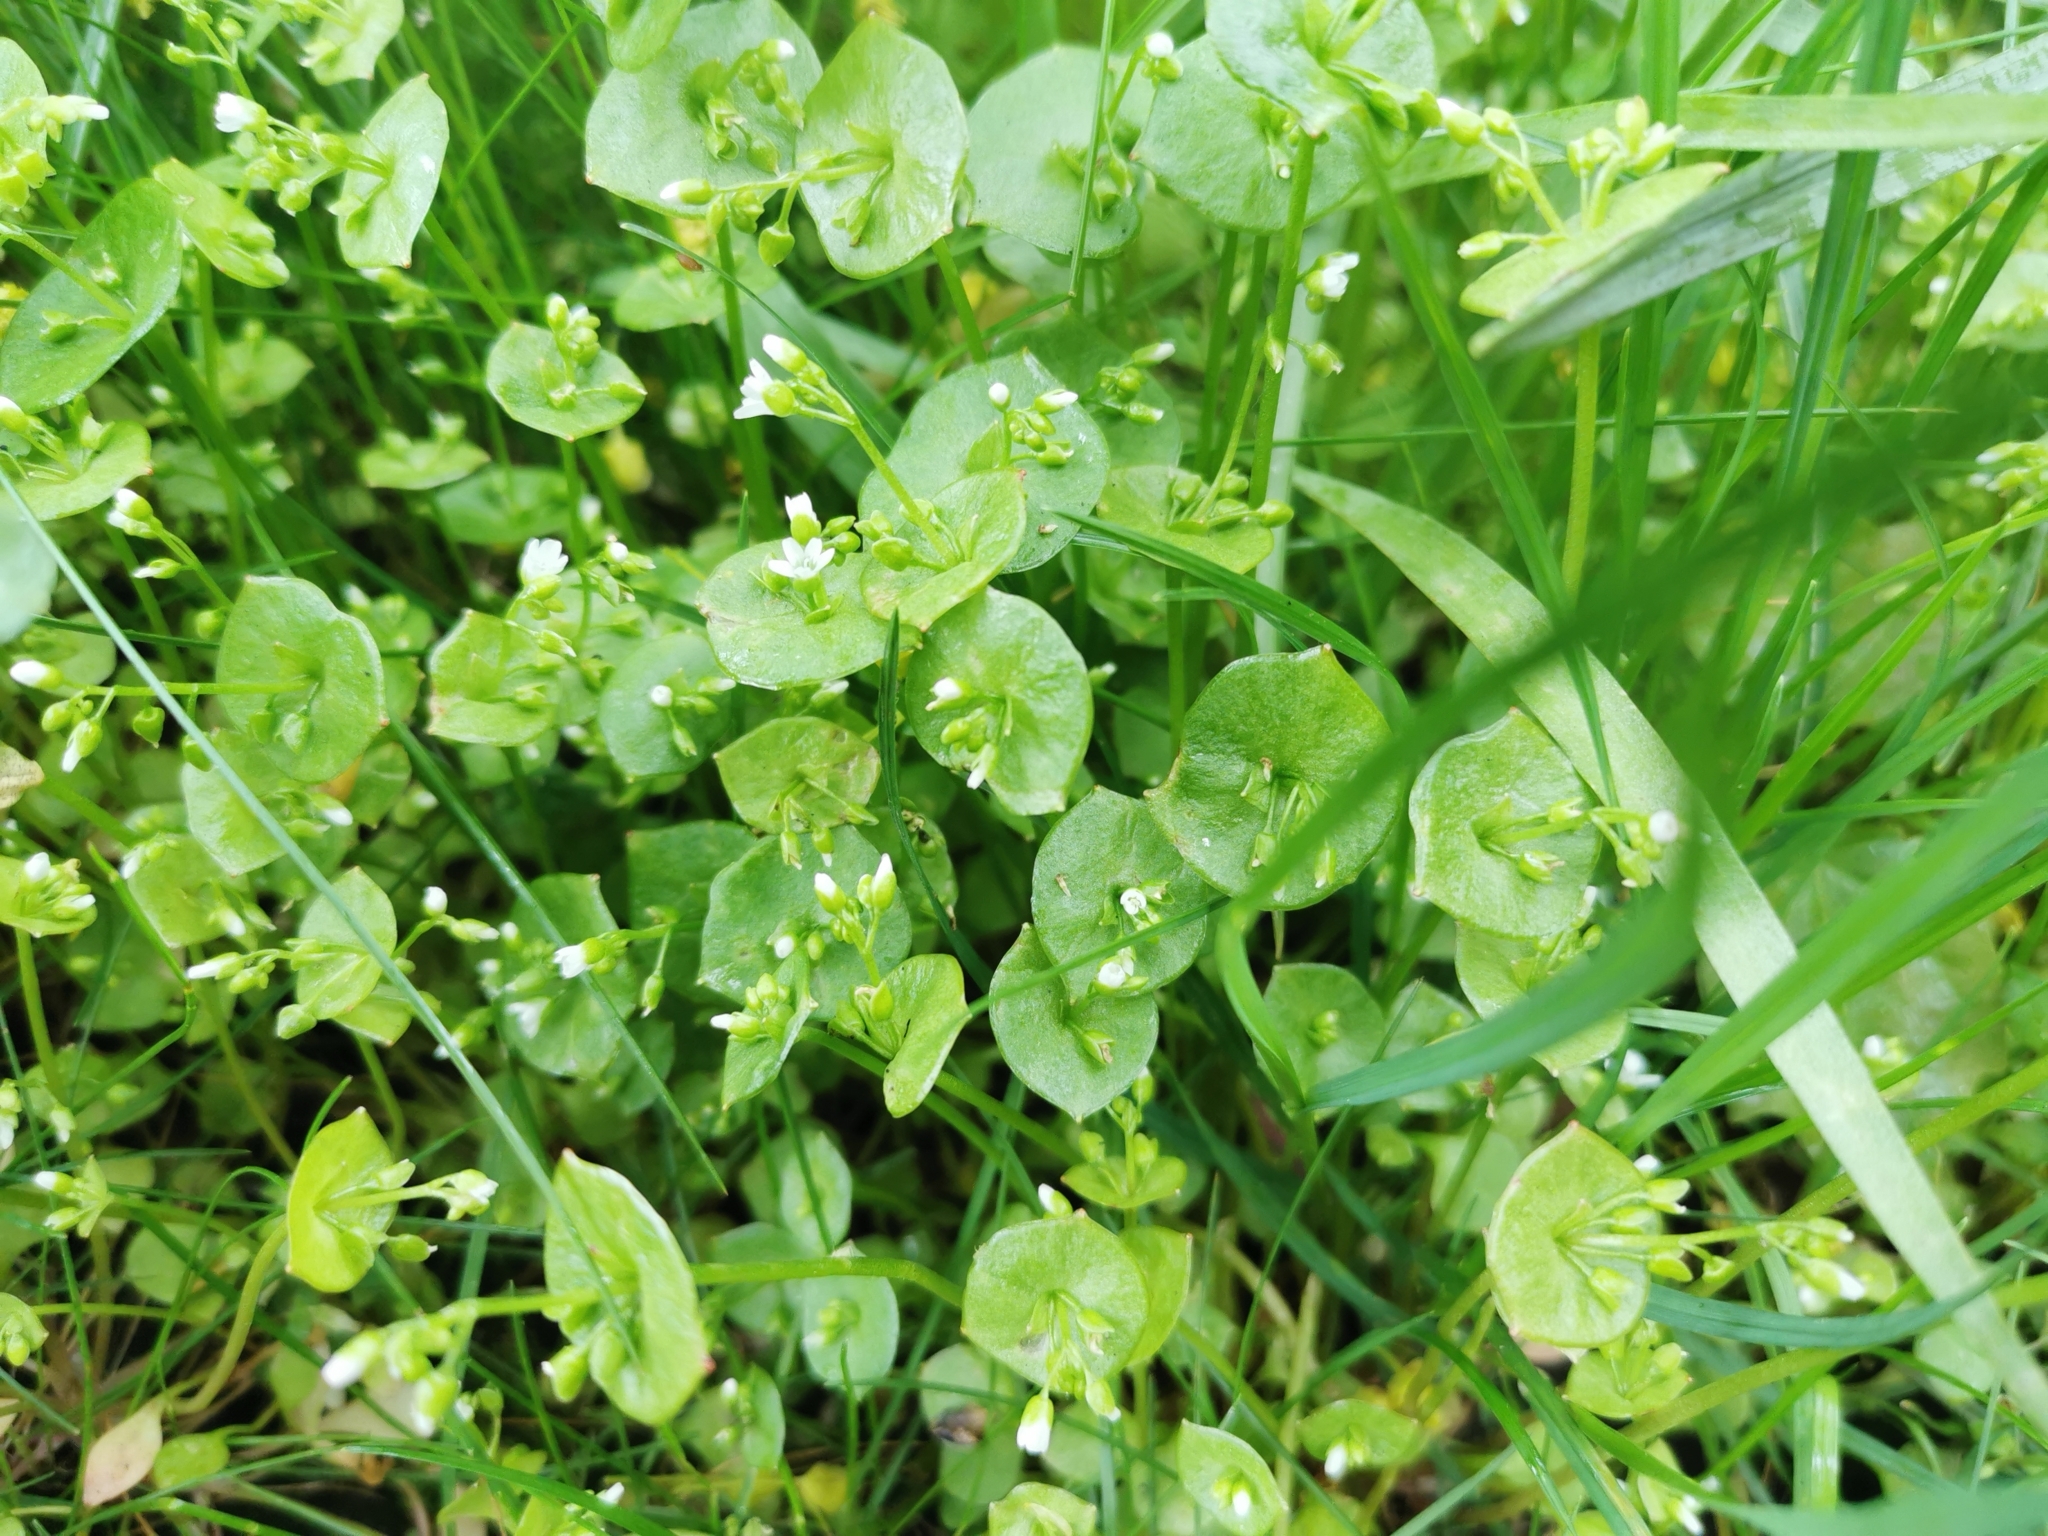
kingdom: Plantae
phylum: Tracheophyta
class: Magnoliopsida
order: Caryophyllales
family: Montiaceae
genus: Claytonia
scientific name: Claytonia perfoliata
